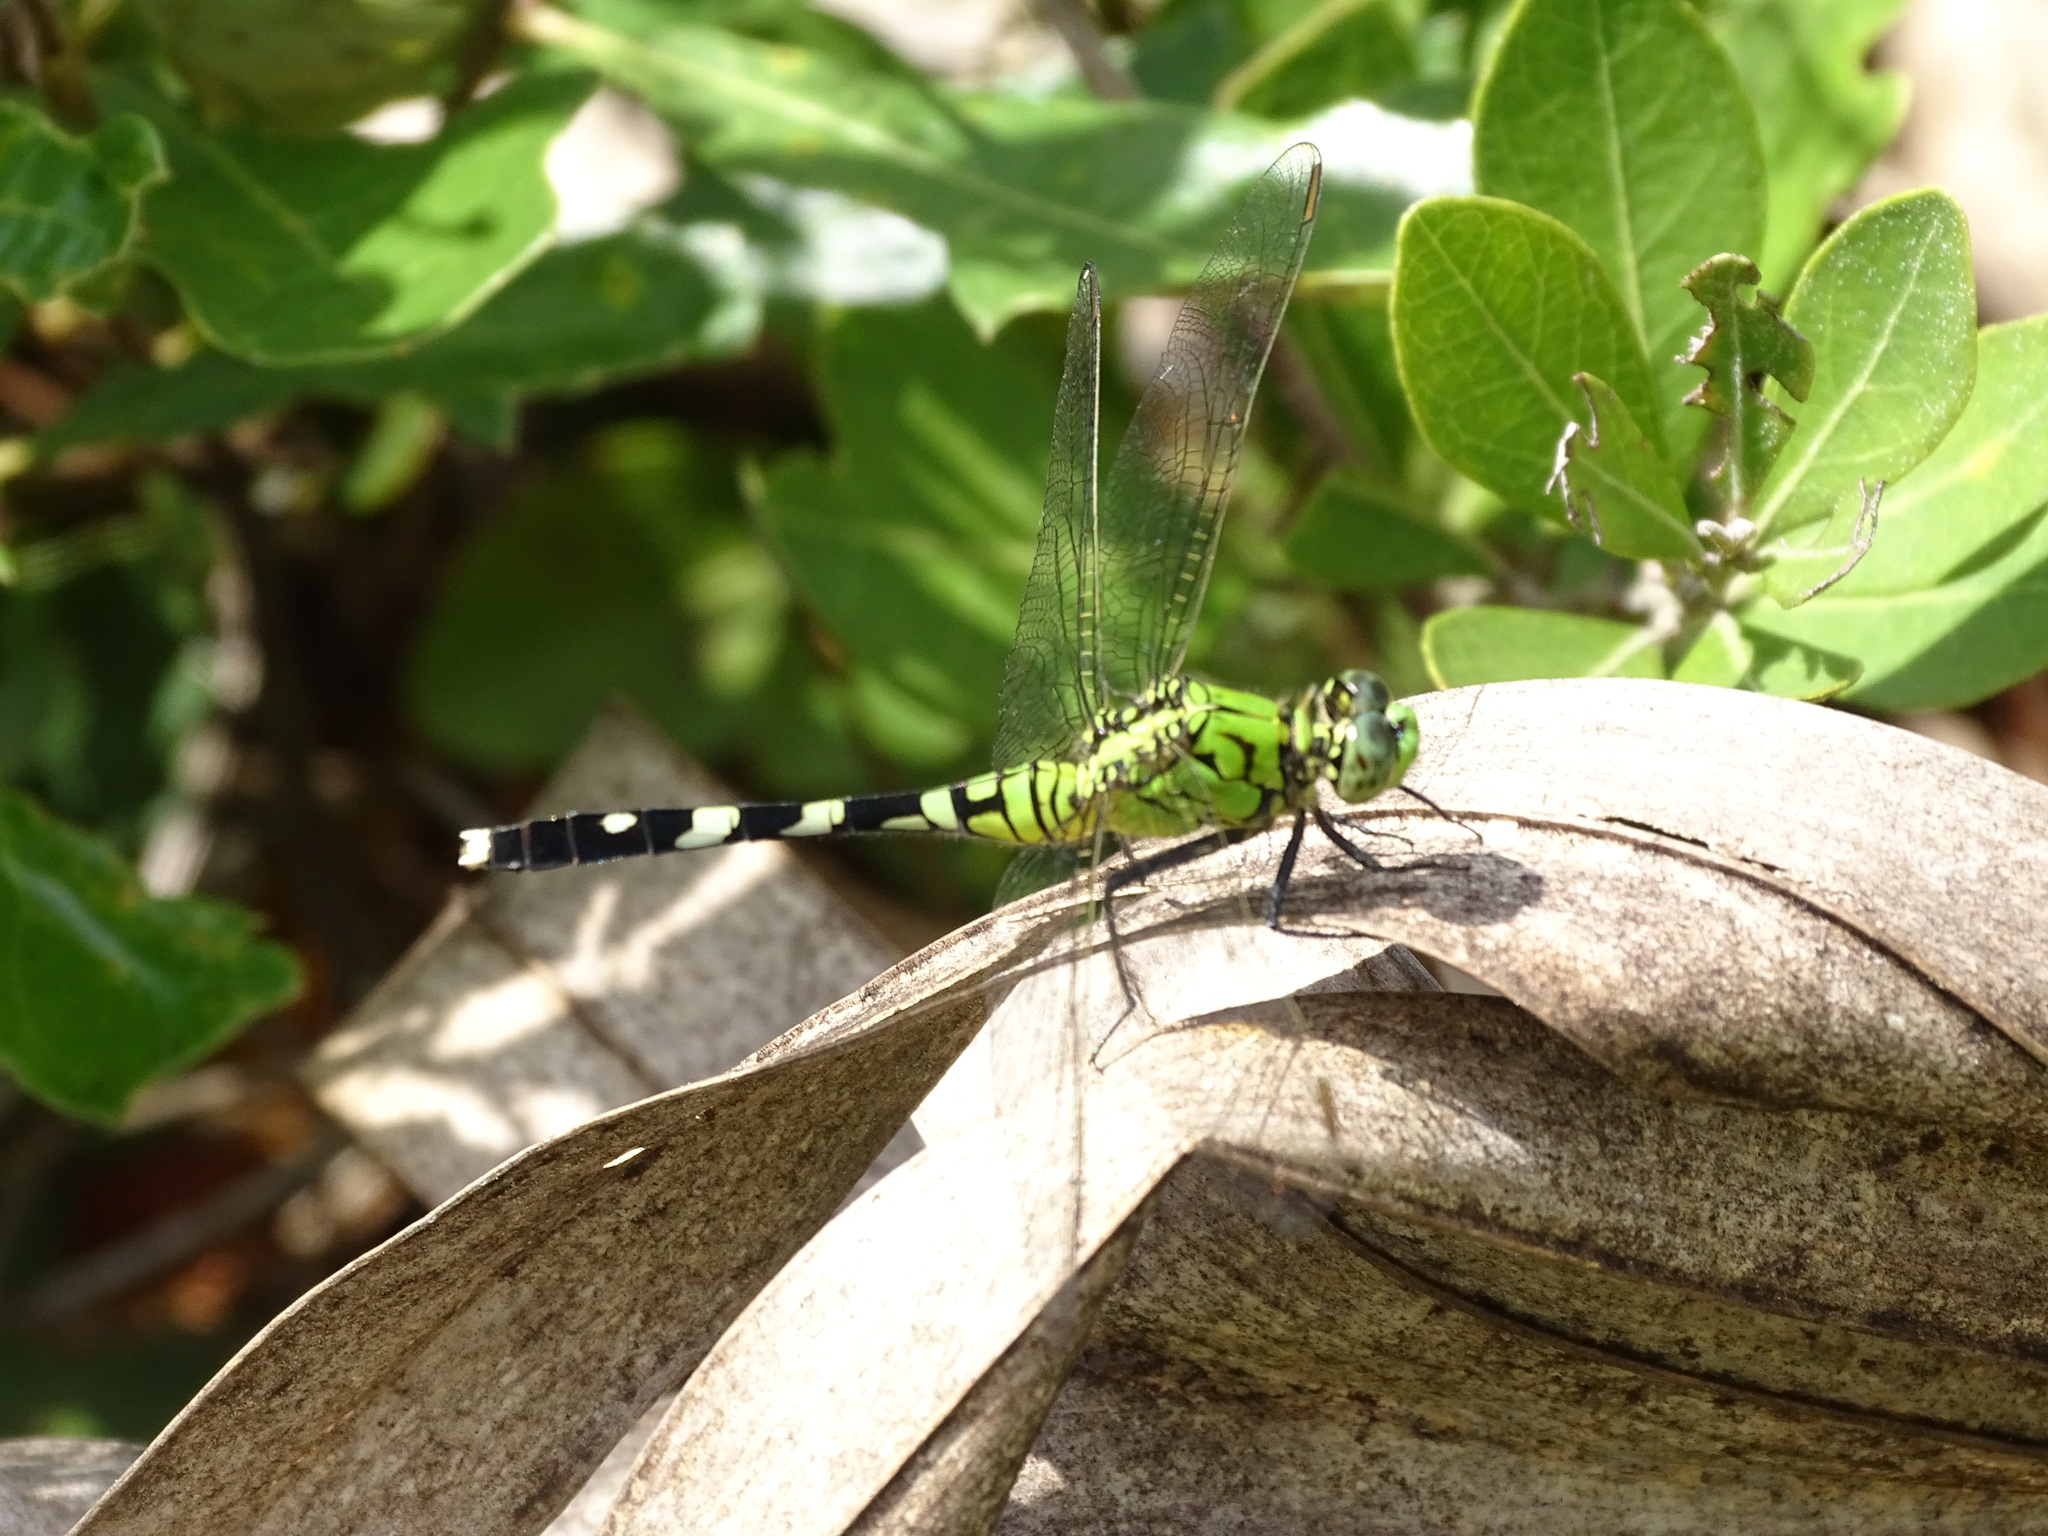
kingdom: Animalia
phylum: Arthropoda
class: Insecta
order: Odonata
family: Libellulidae
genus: Erythemis
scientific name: Erythemis simplicicollis
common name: Eastern pondhawk
